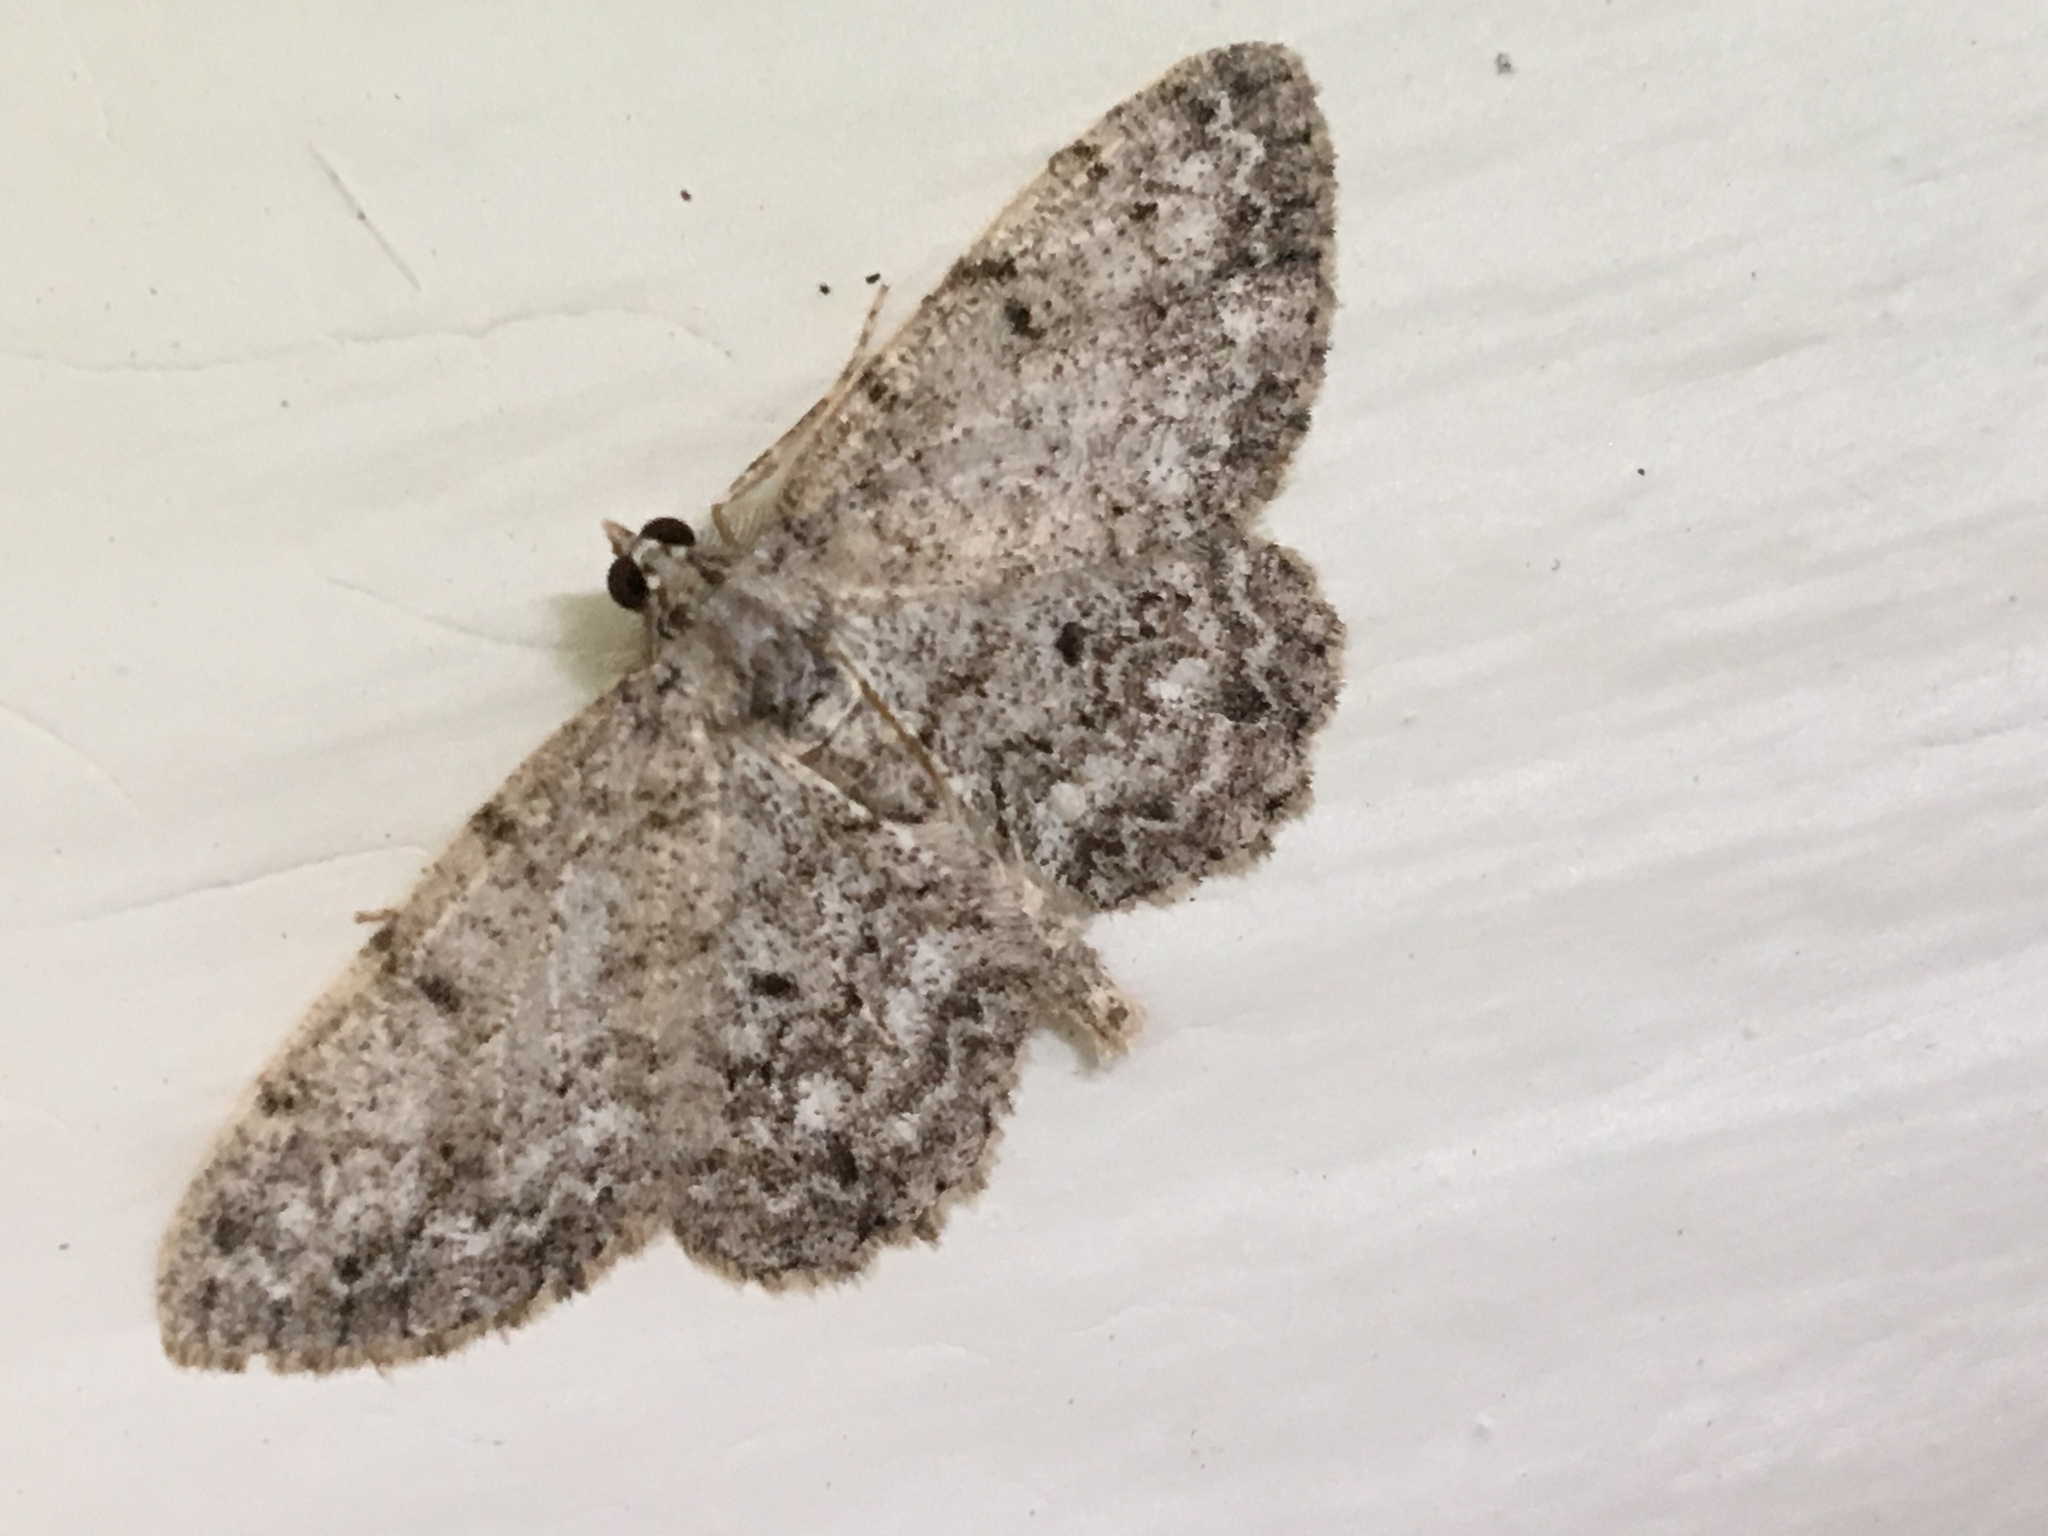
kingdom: Animalia
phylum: Arthropoda
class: Insecta
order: Lepidoptera
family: Geometridae
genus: Protoboarmia
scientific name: Protoboarmia porcelaria
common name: Porcelain gray
